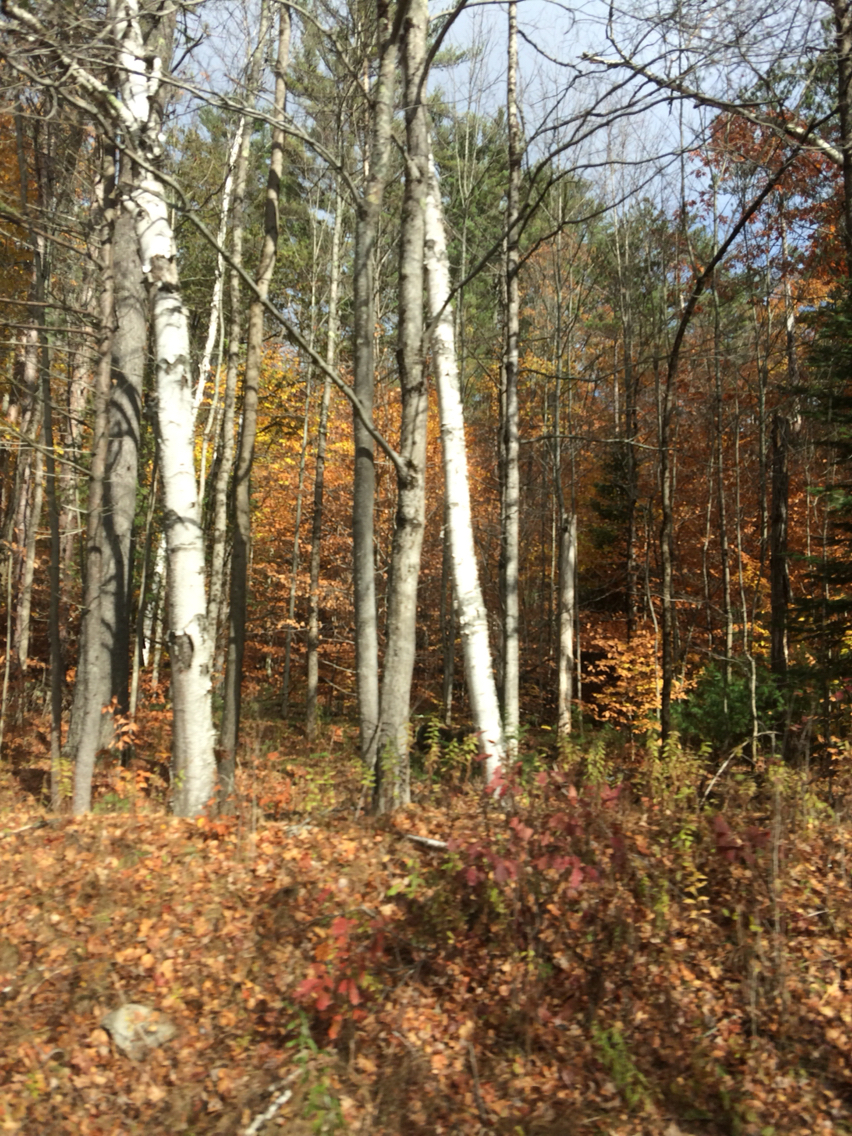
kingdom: Plantae
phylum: Tracheophyta
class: Magnoliopsida
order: Fagales
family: Betulaceae
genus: Betula
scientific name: Betula papyrifera
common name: Paper birch
